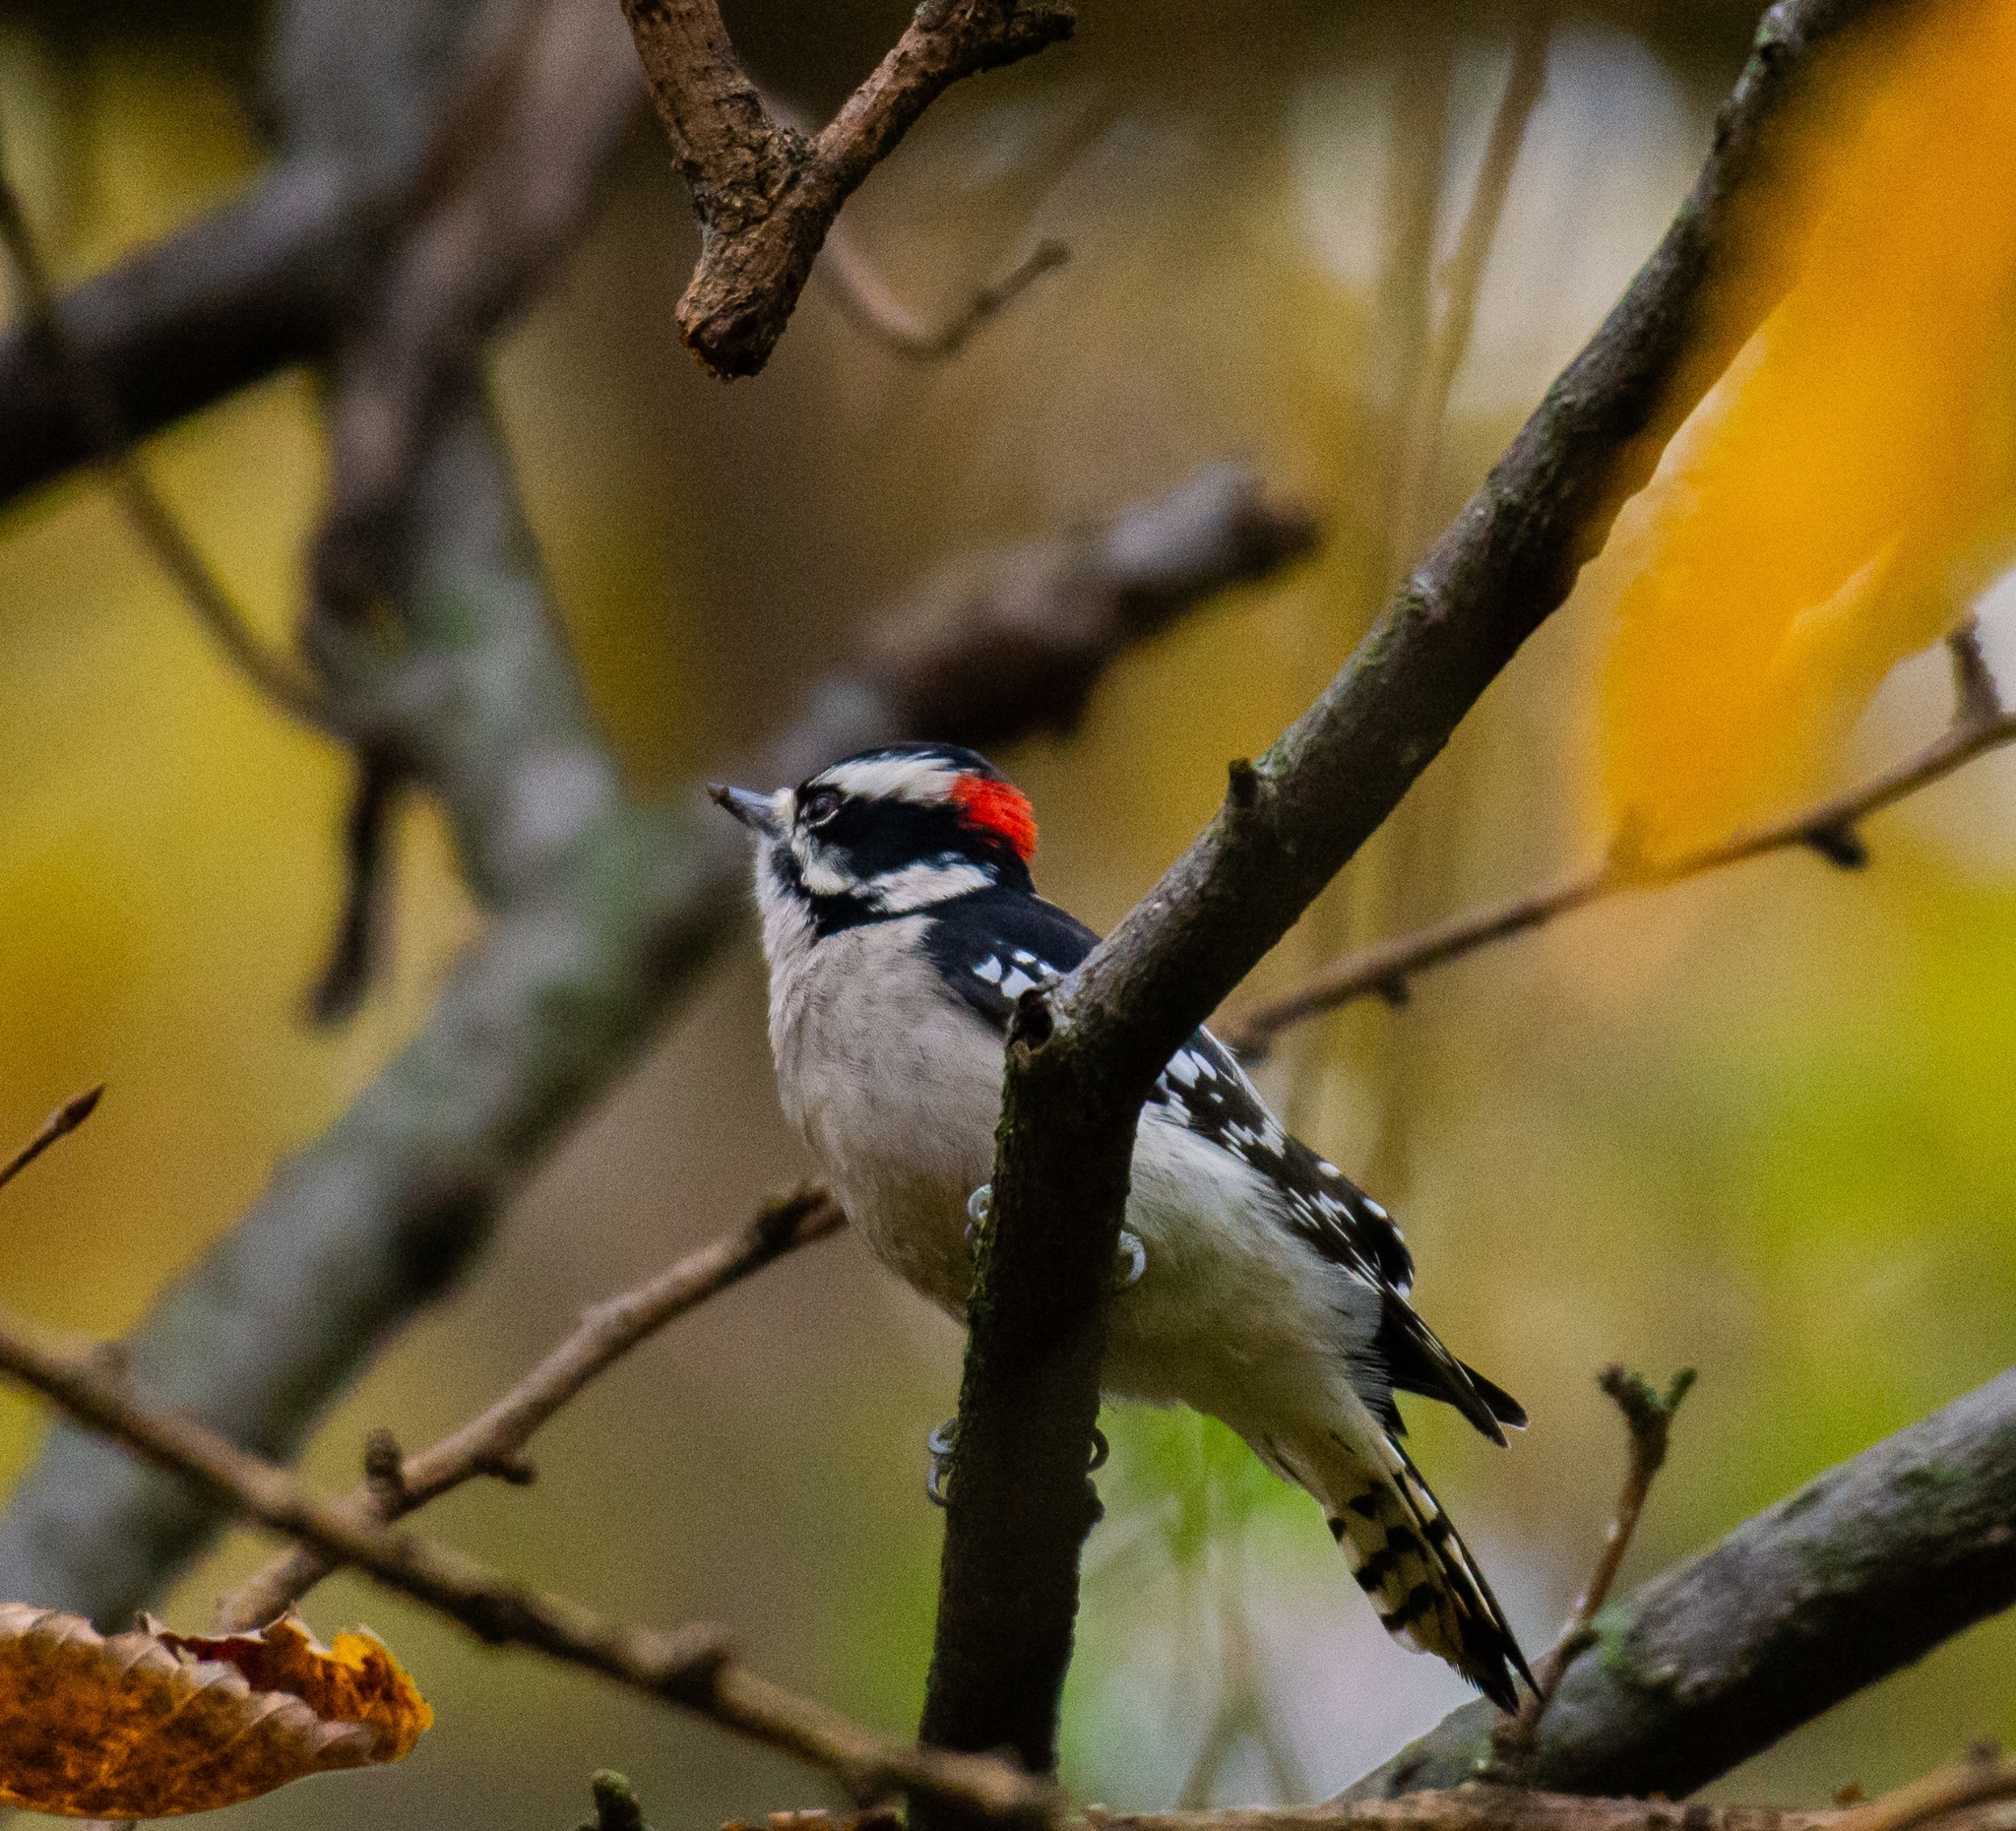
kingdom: Animalia
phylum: Chordata
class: Aves
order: Piciformes
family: Picidae
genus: Dryobates
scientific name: Dryobates pubescens
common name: Downy woodpecker
